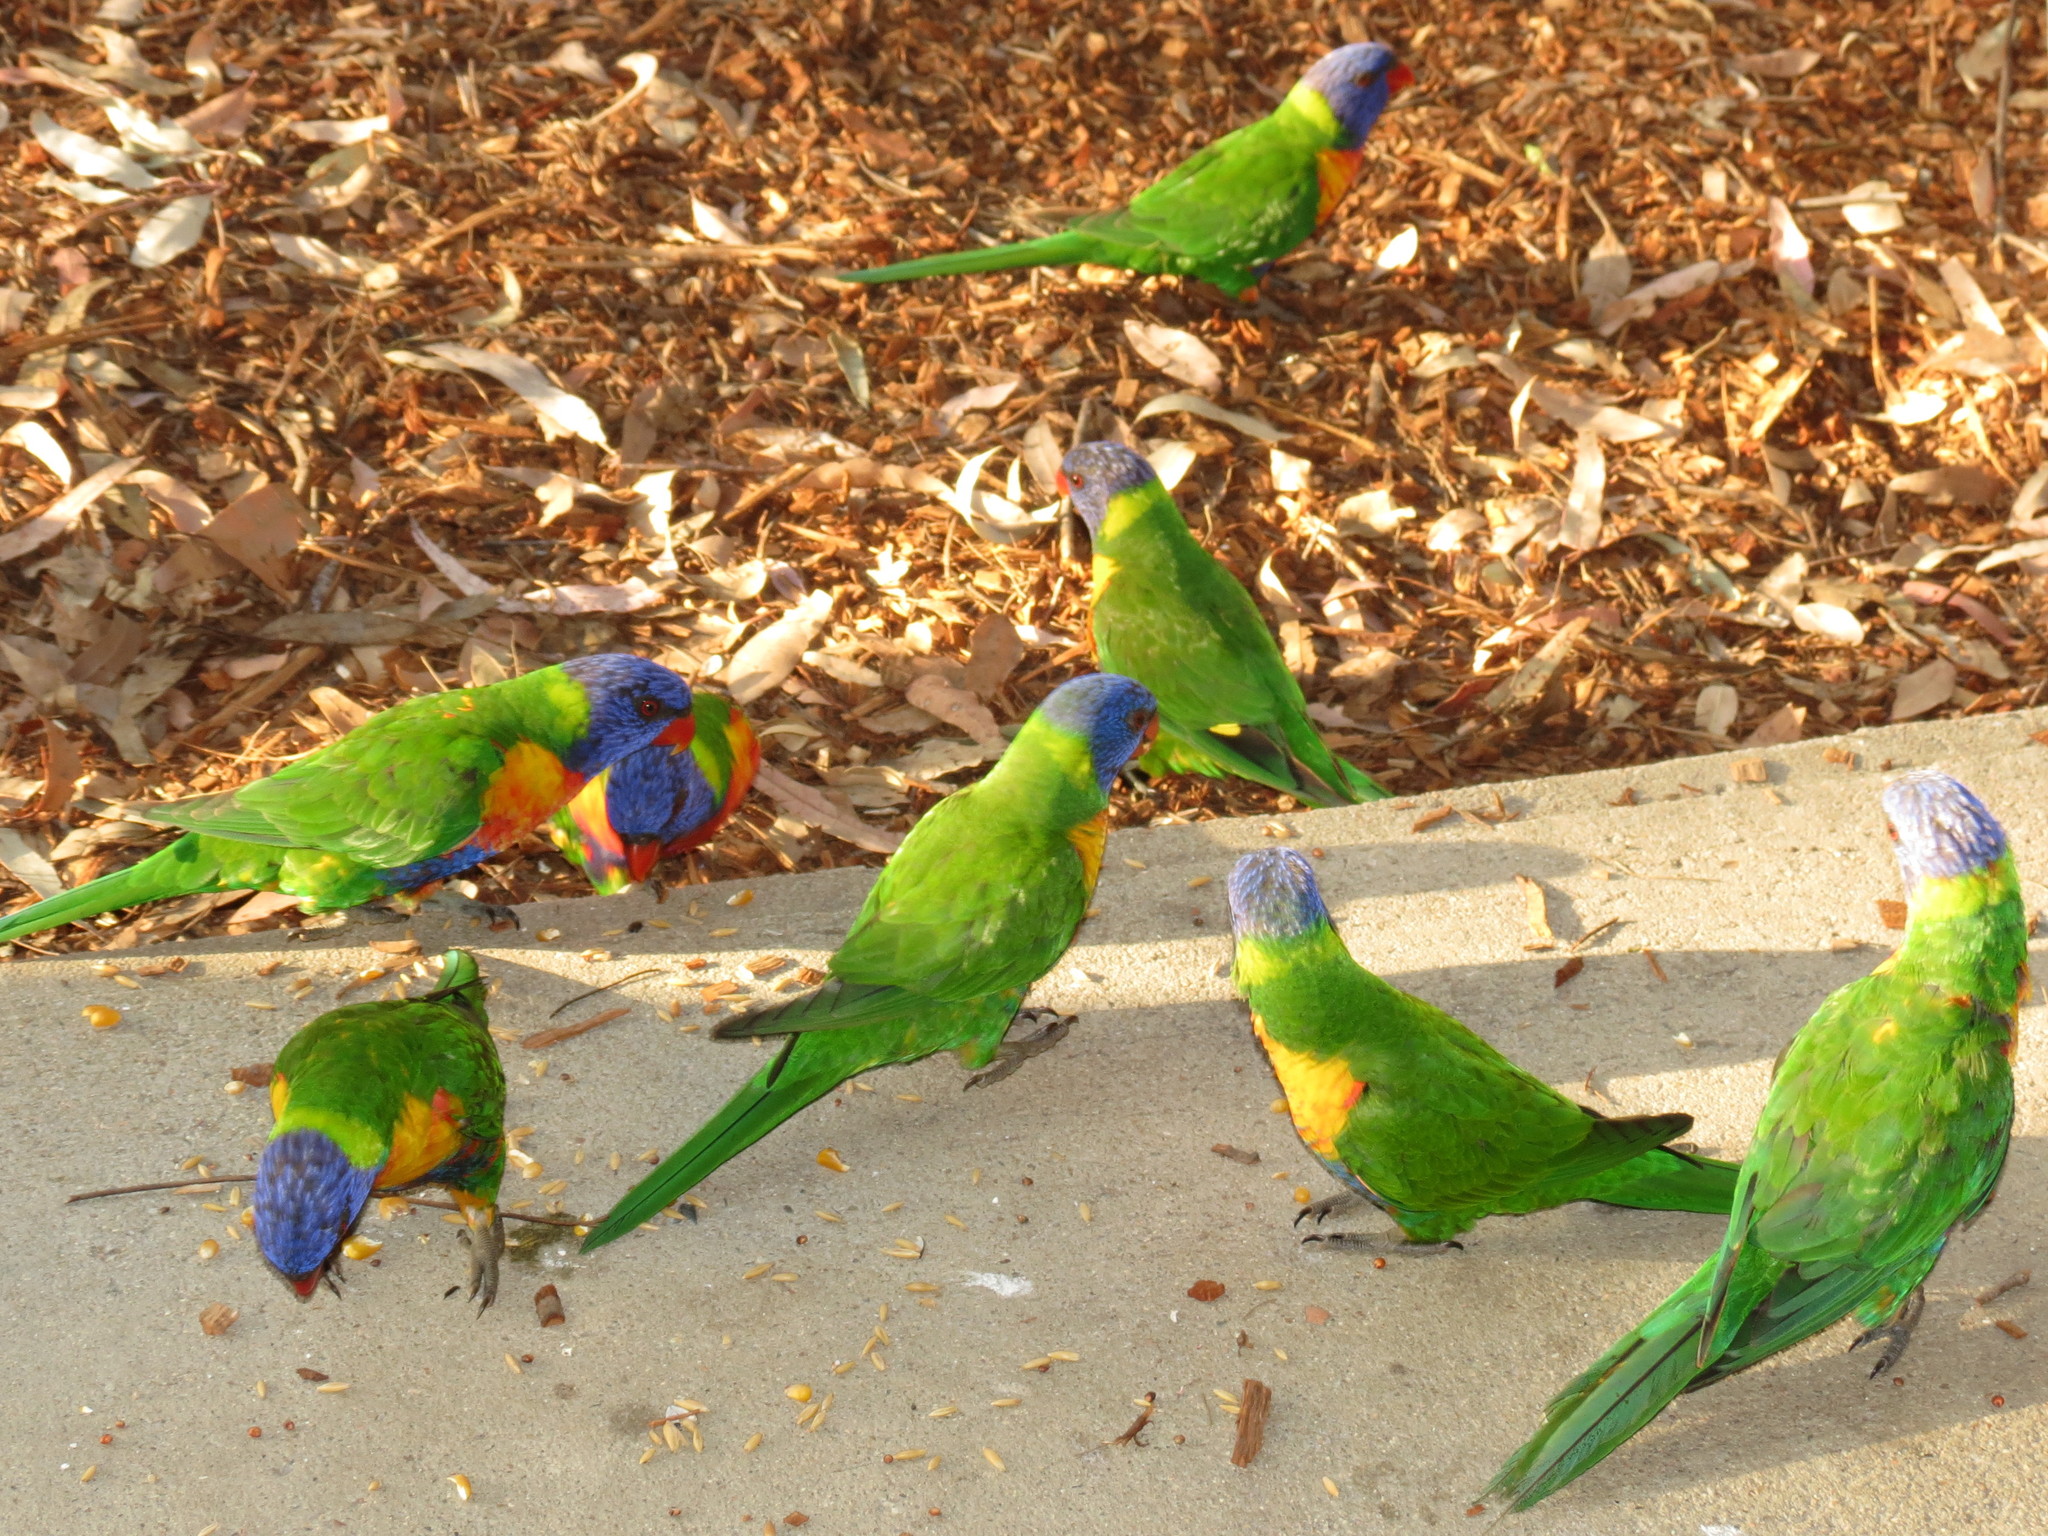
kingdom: Animalia
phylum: Chordata
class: Aves
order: Psittaciformes
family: Psittacidae
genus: Trichoglossus
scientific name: Trichoglossus haematodus
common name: Coconut lorikeet
